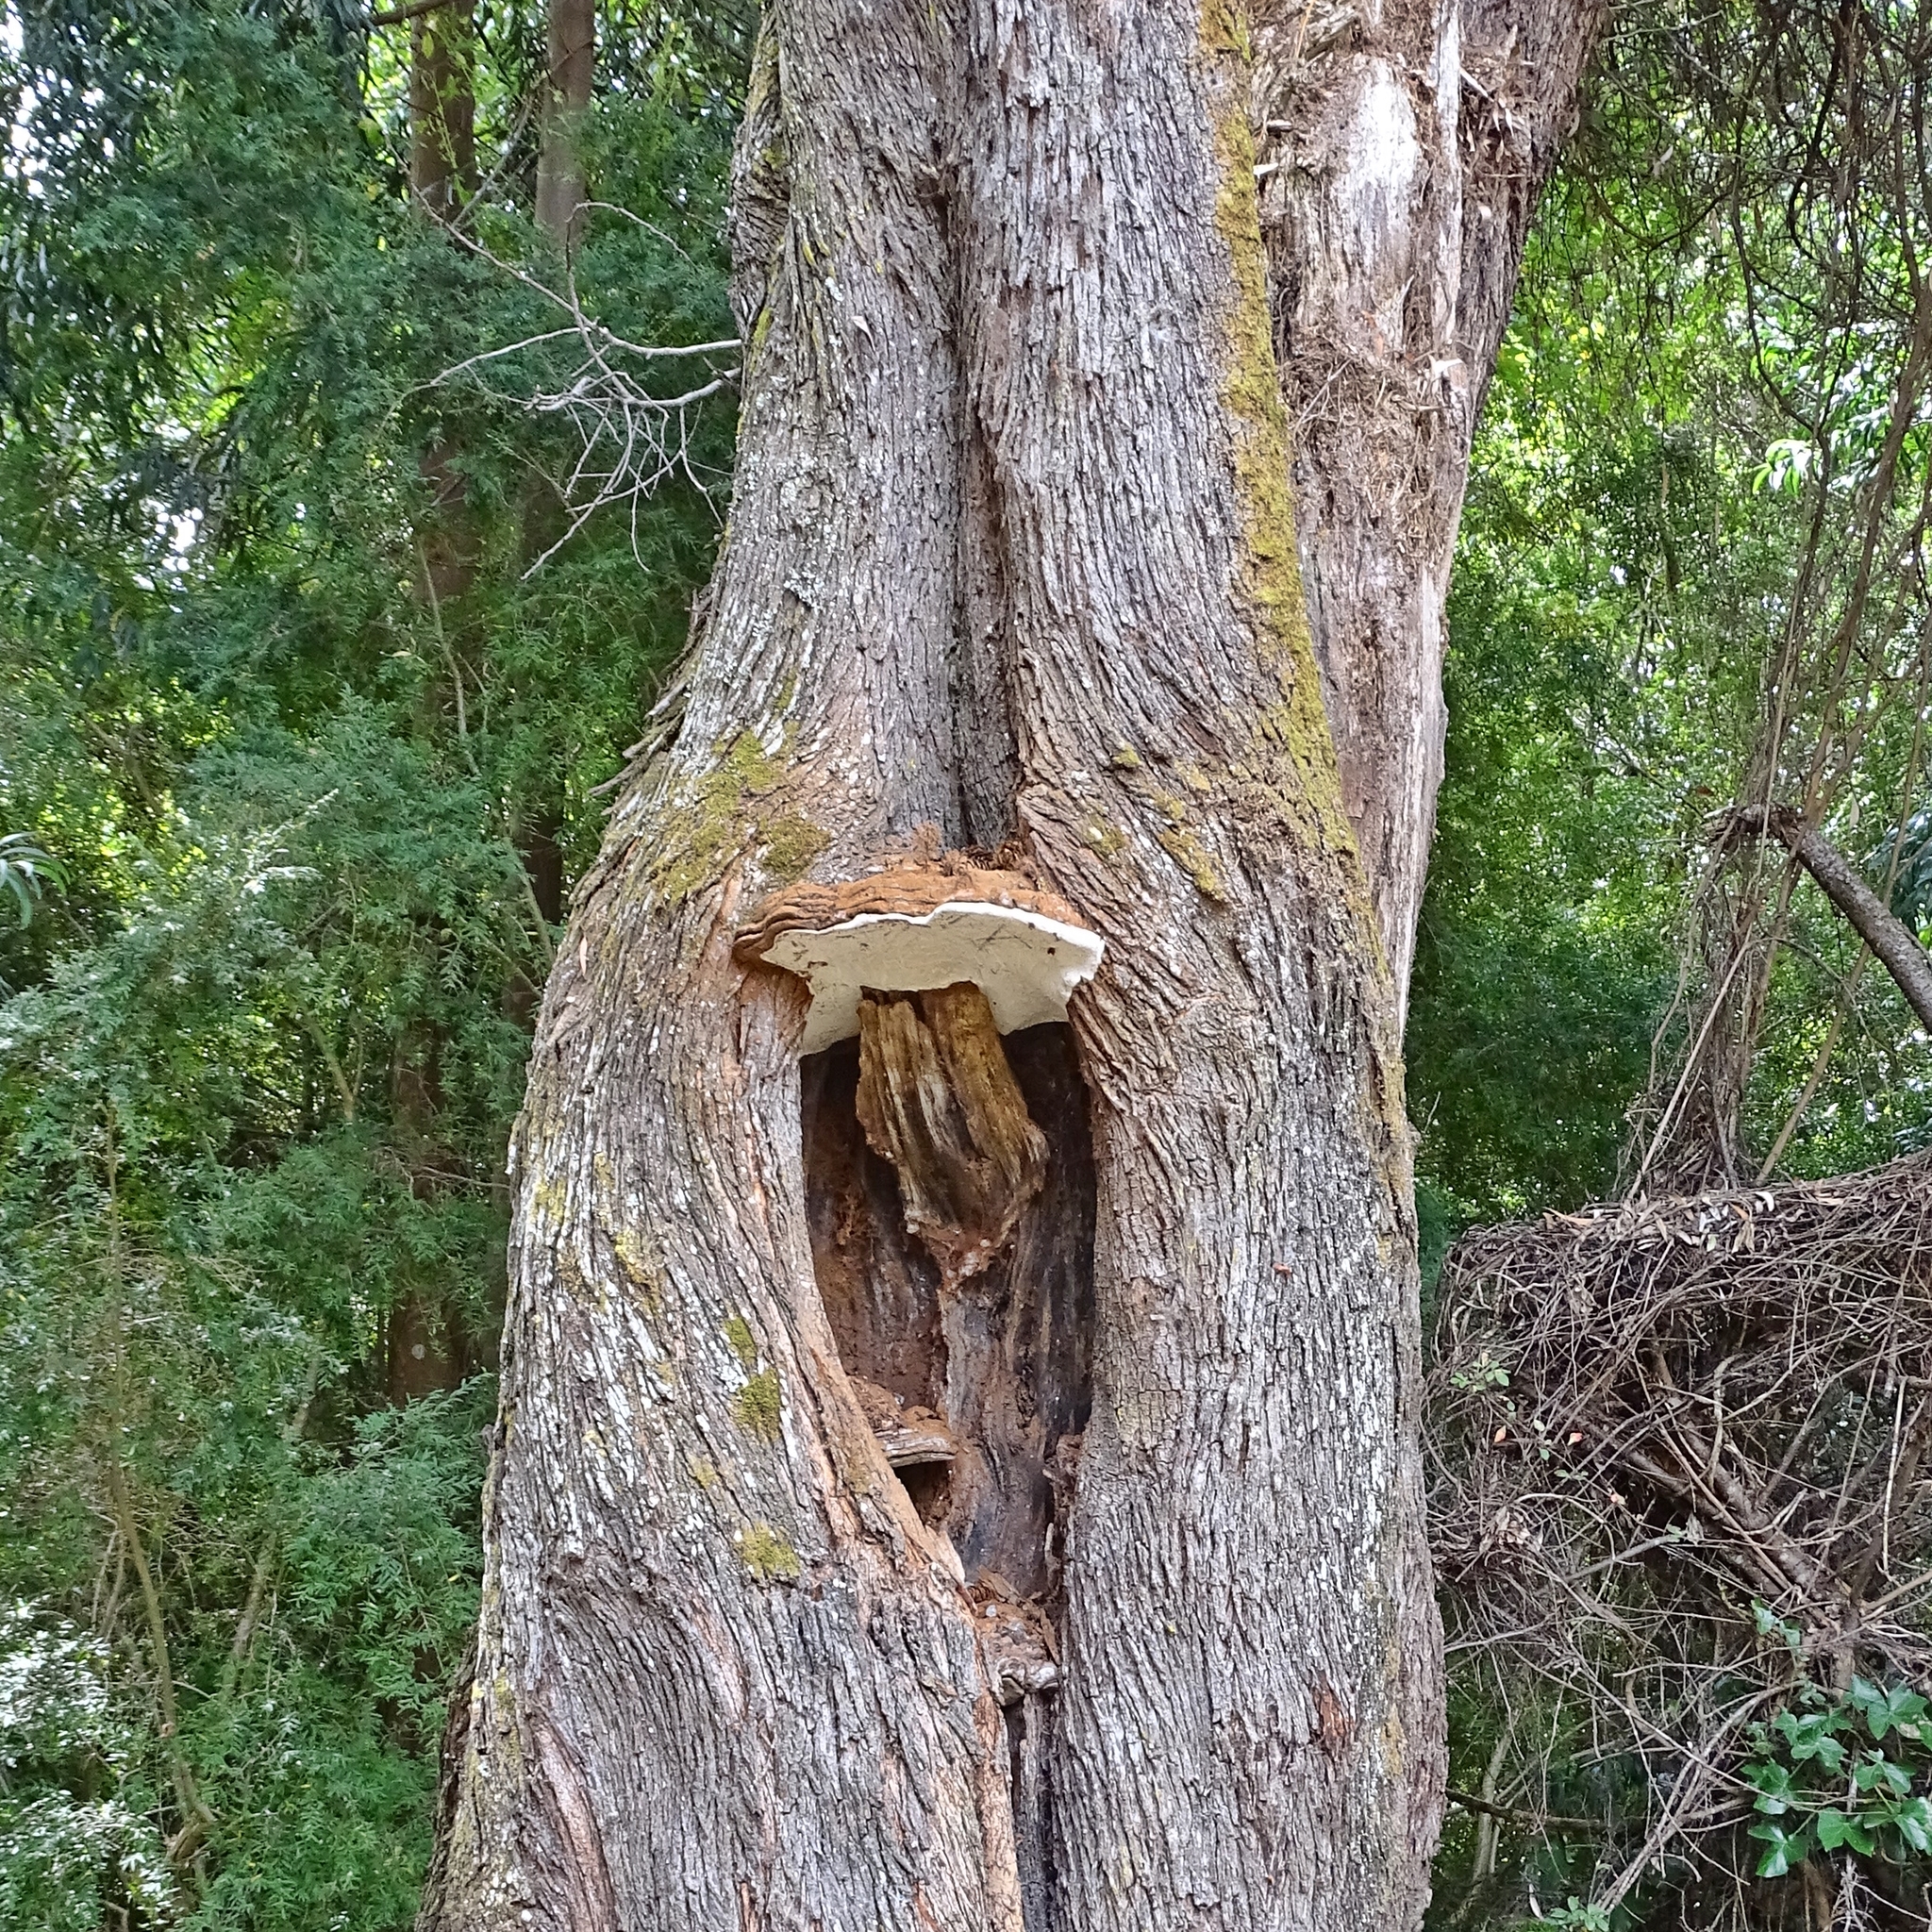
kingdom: Fungi
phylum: Basidiomycota
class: Agaricomycetes
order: Polyporales
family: Polyporaceae
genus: Ganoderma
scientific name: Ganoderma australe
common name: Southern bracket
